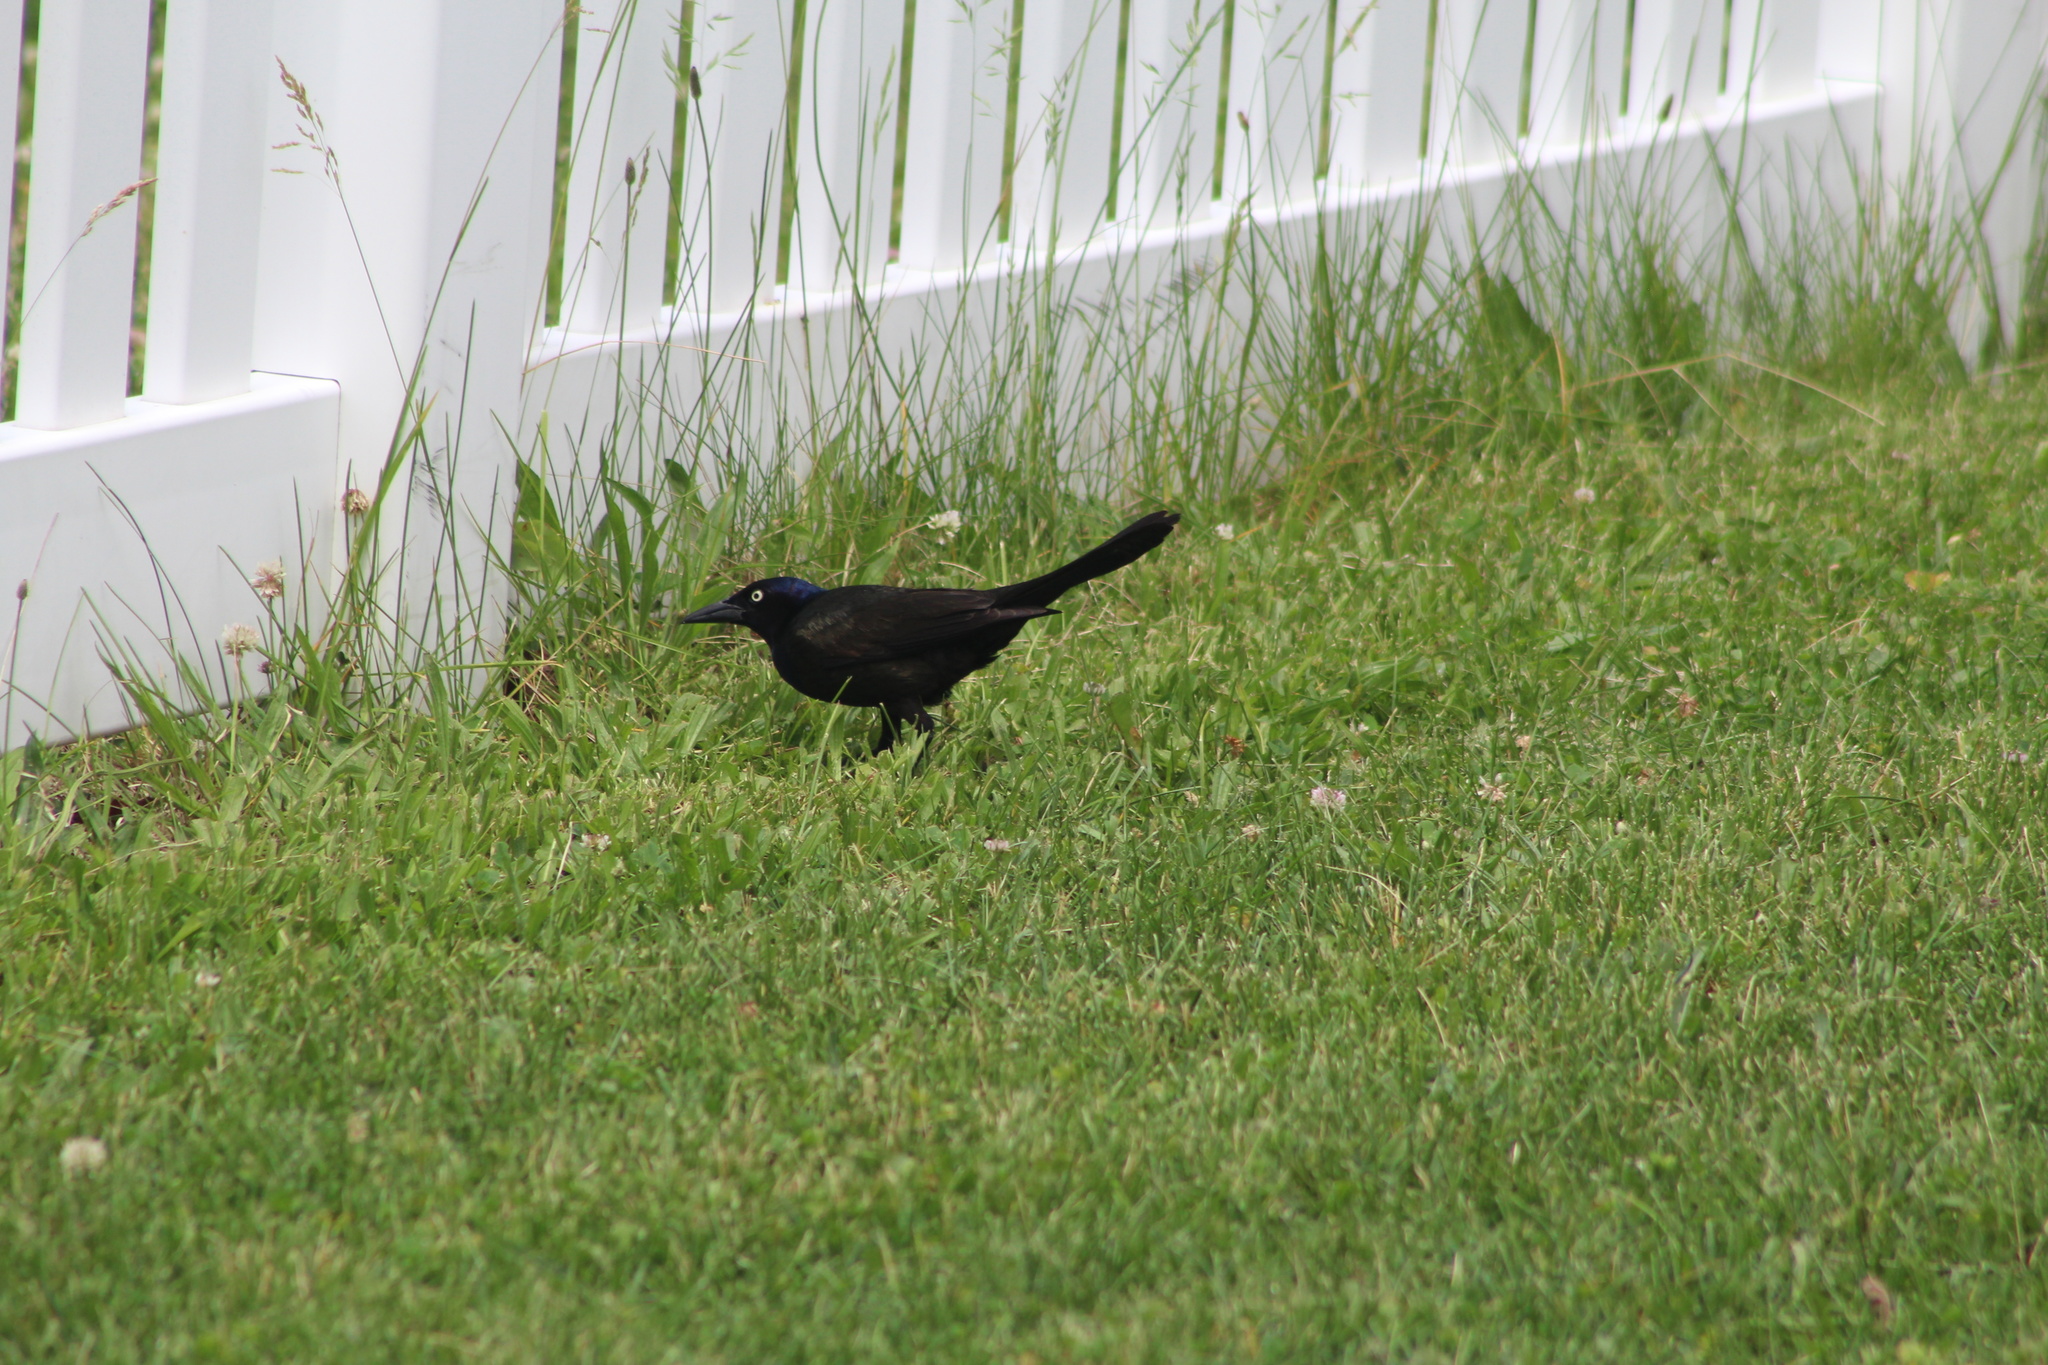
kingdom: Animalia
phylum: Chordata
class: Aves
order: Passeriformes
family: Icteridae
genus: Quiscalus
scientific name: Quiscalus quiscula
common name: Common grackle
